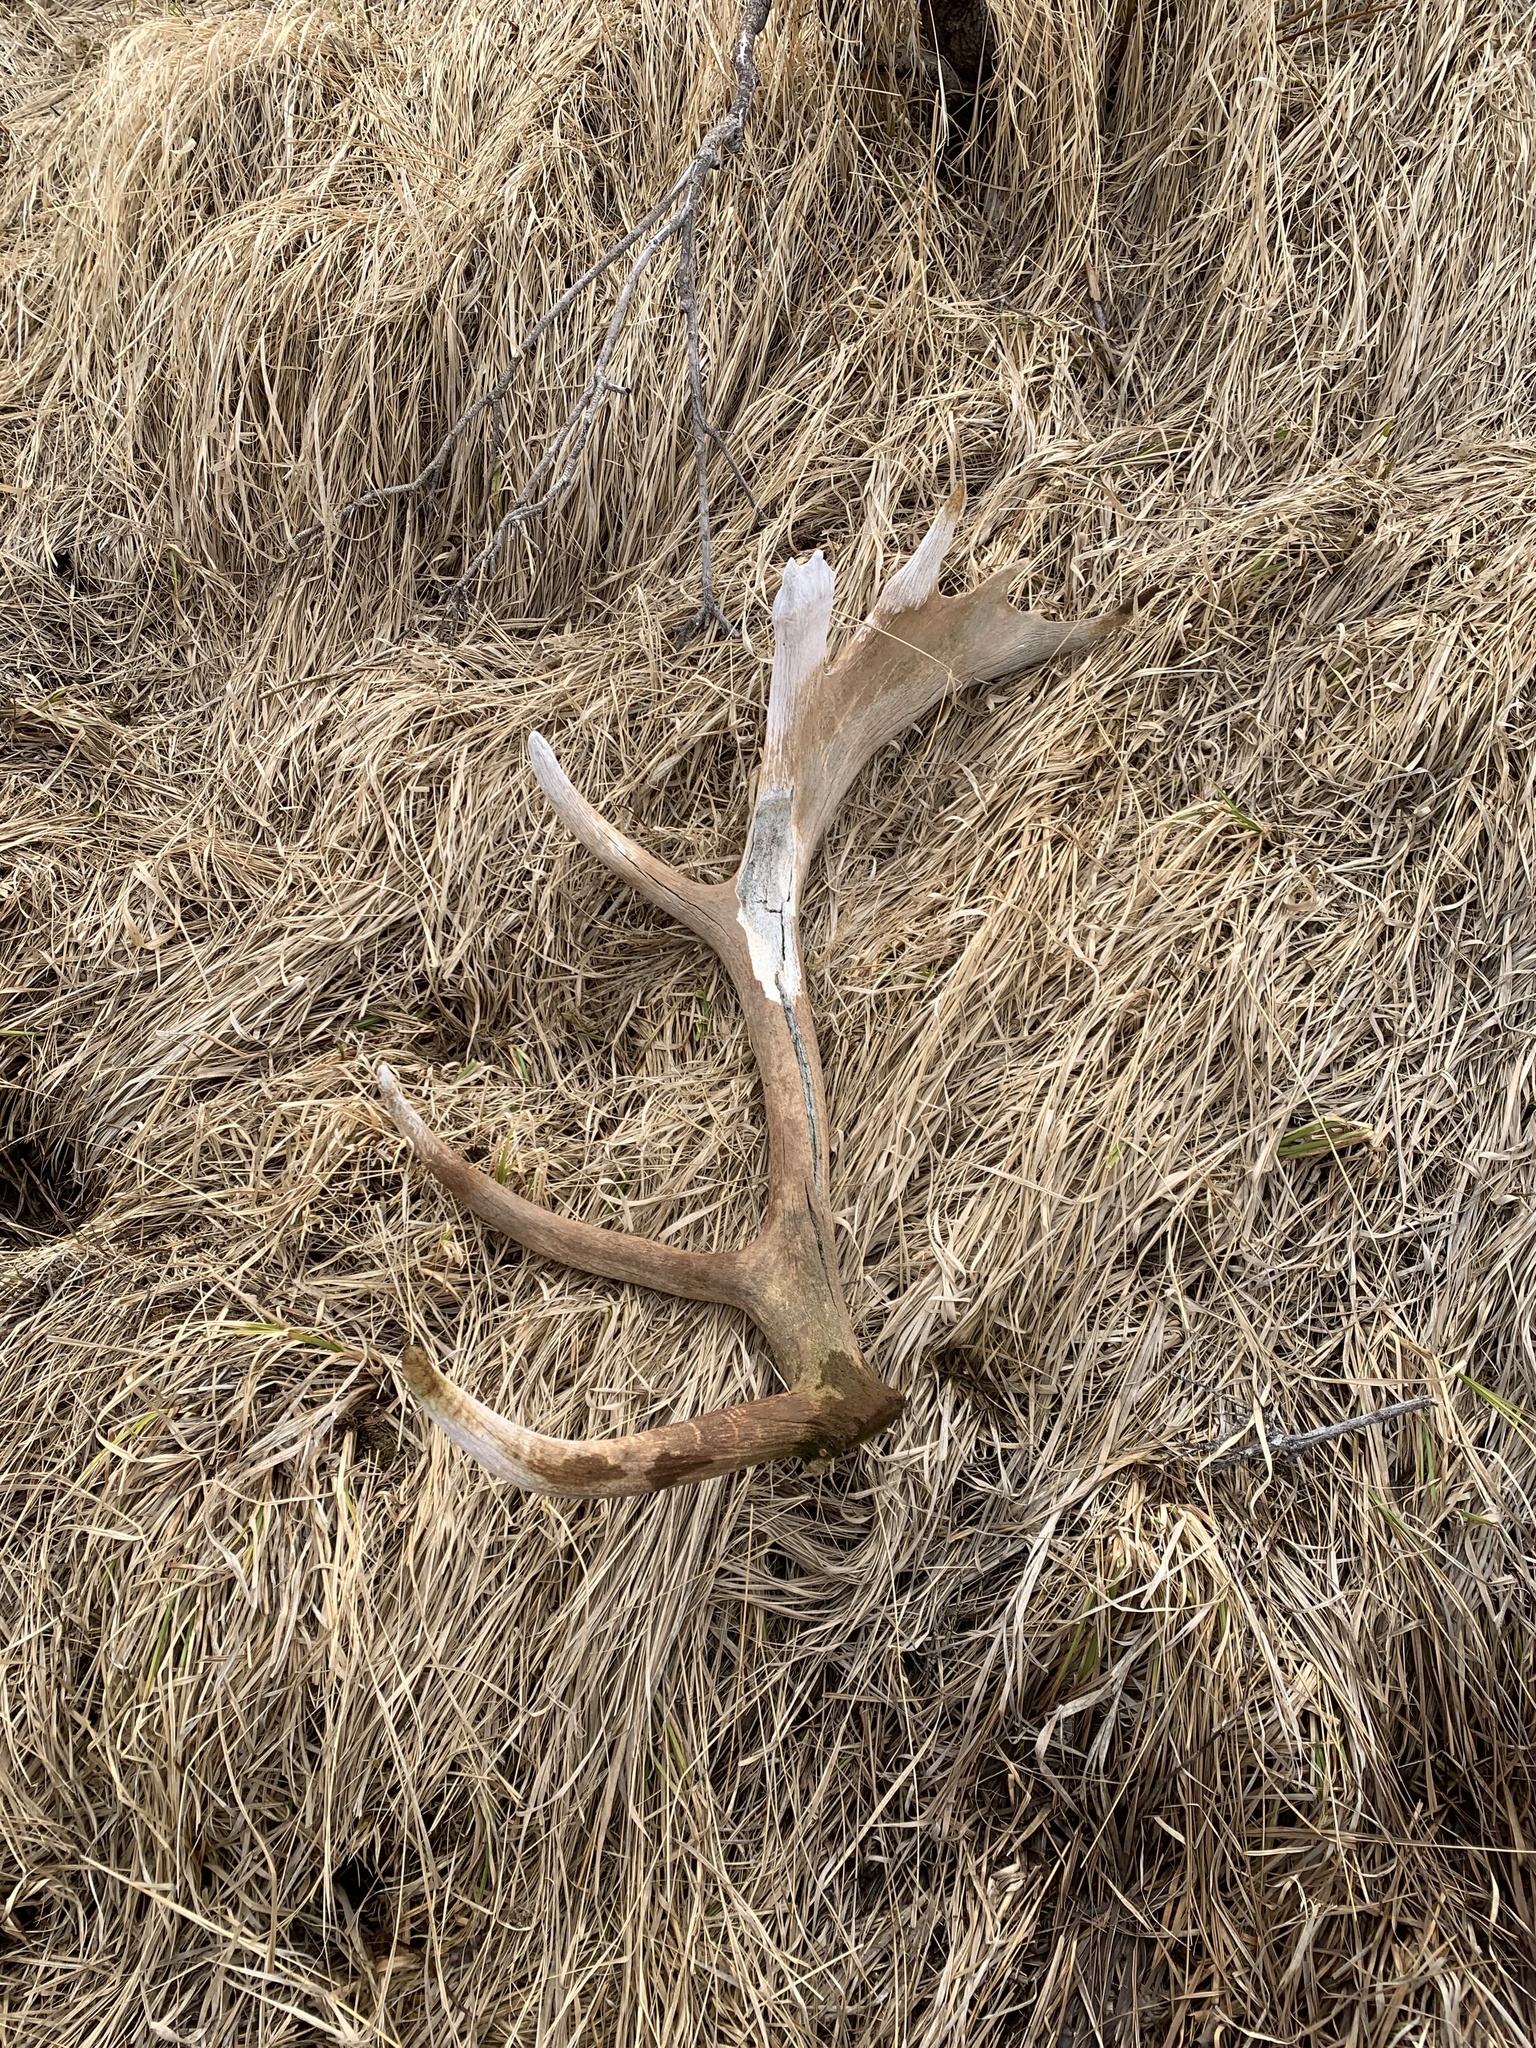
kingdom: Animalia
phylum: Chordata
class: Mammalia
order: Artiodactyla
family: Cervidae
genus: Cervus
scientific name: Cervus elaphus
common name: Red deer
